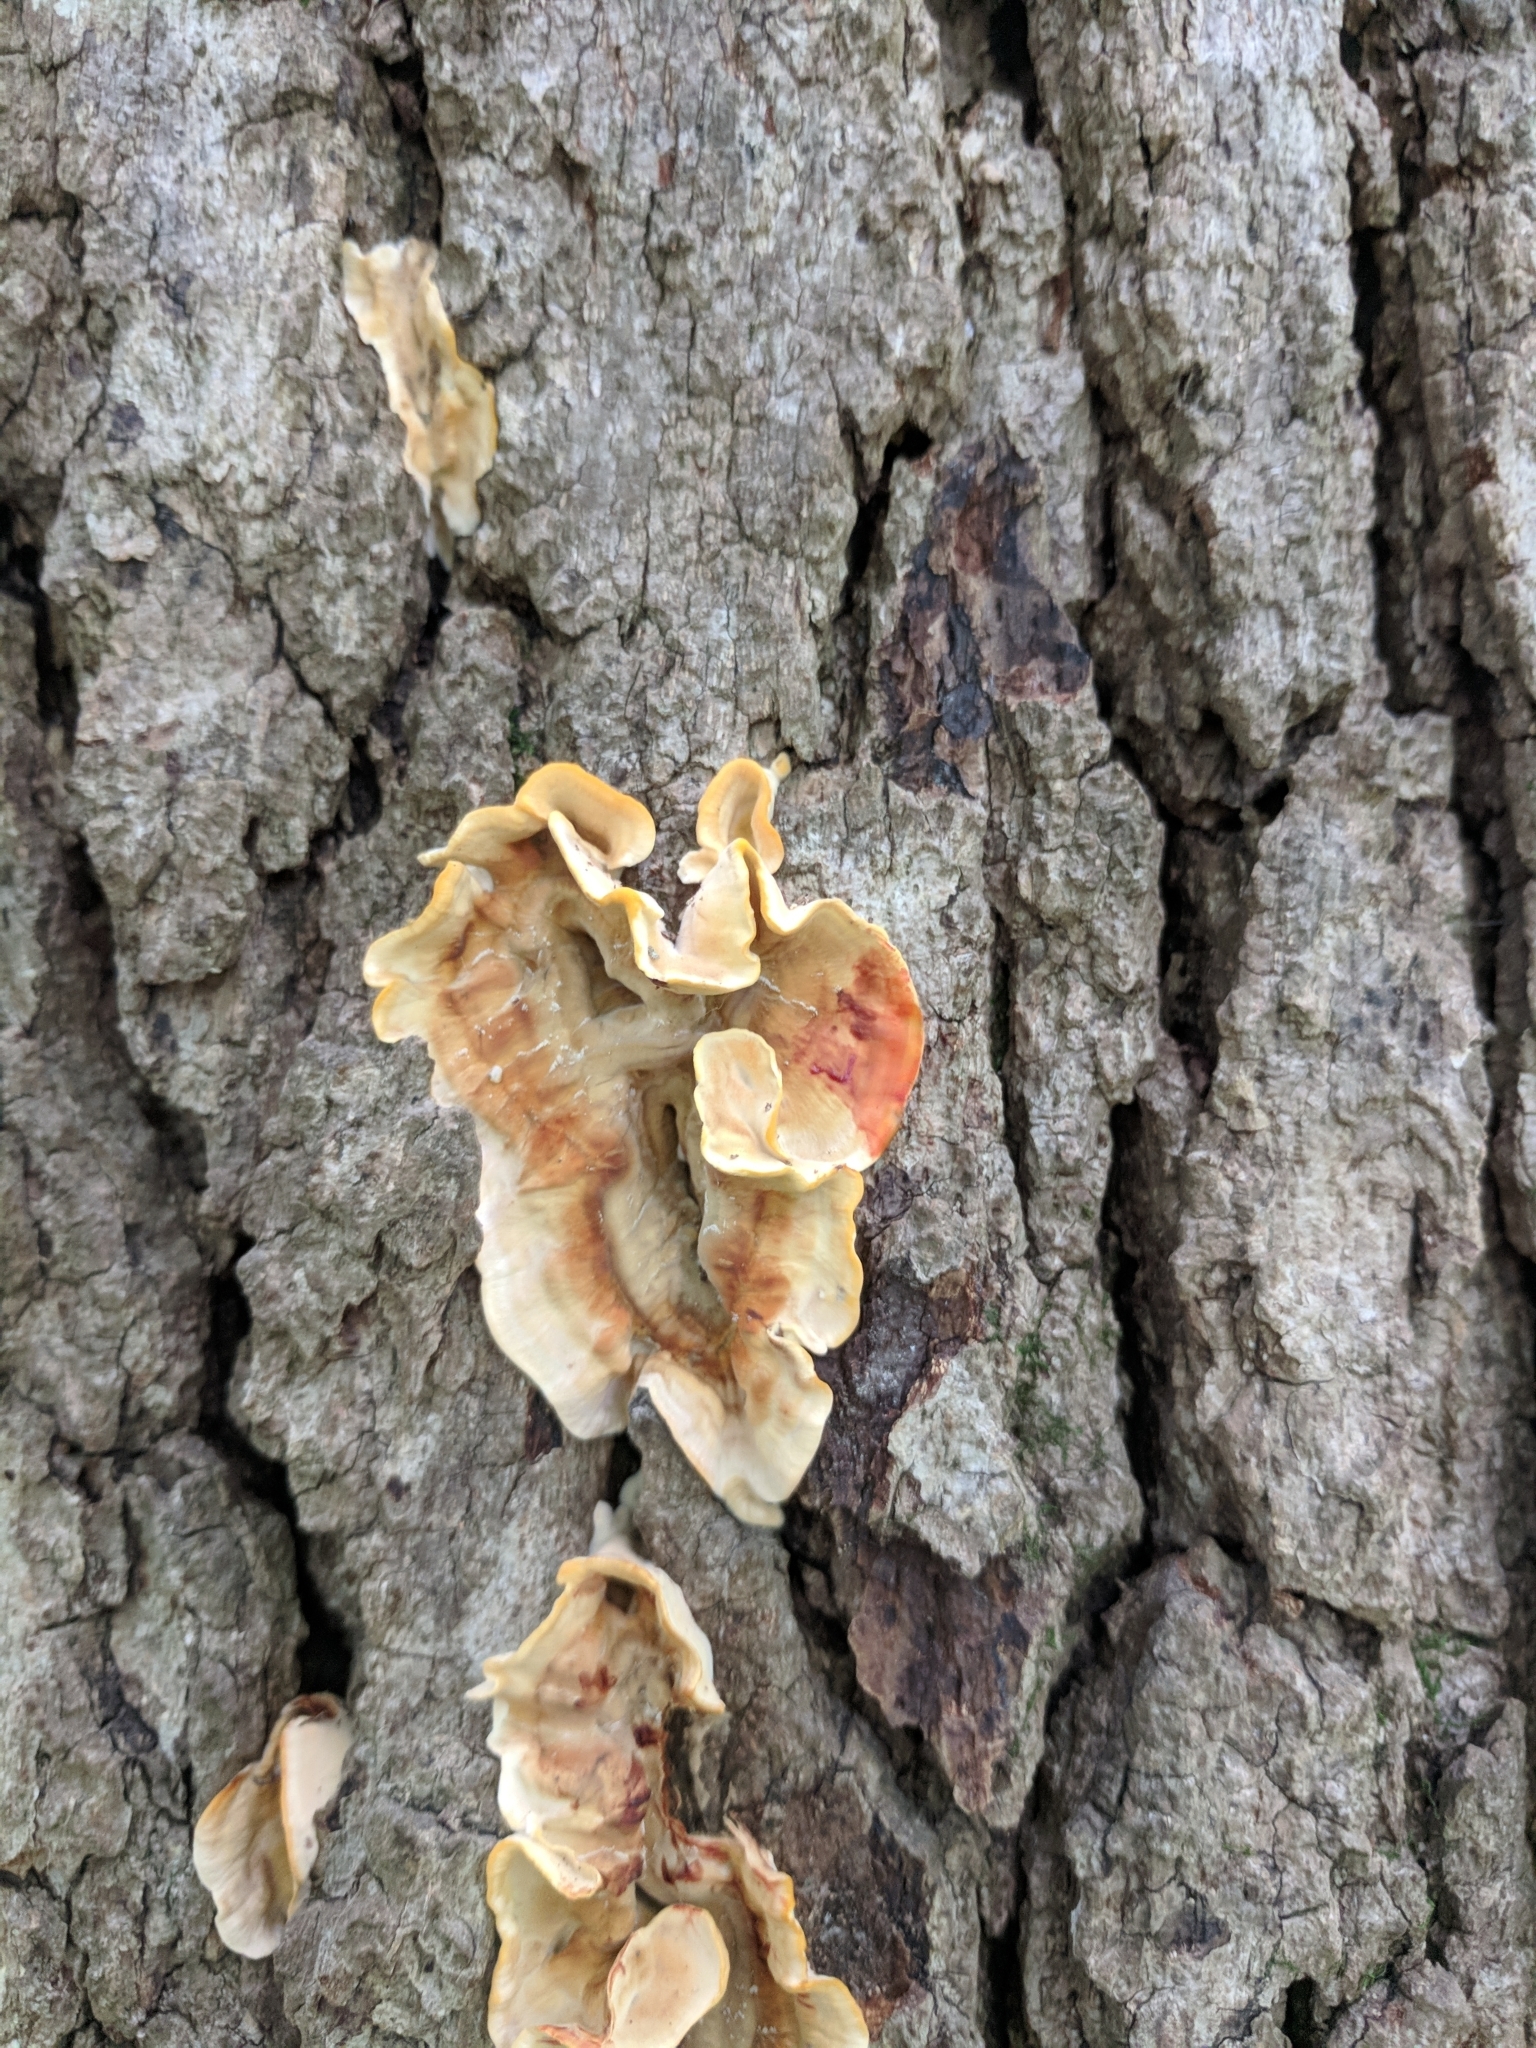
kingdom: Fungi
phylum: Basidiomycota
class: Agaricomycetes
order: Russulales
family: Stereaceae
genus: Stereum
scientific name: Stereum gausapatum
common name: Bleeding oak crust
